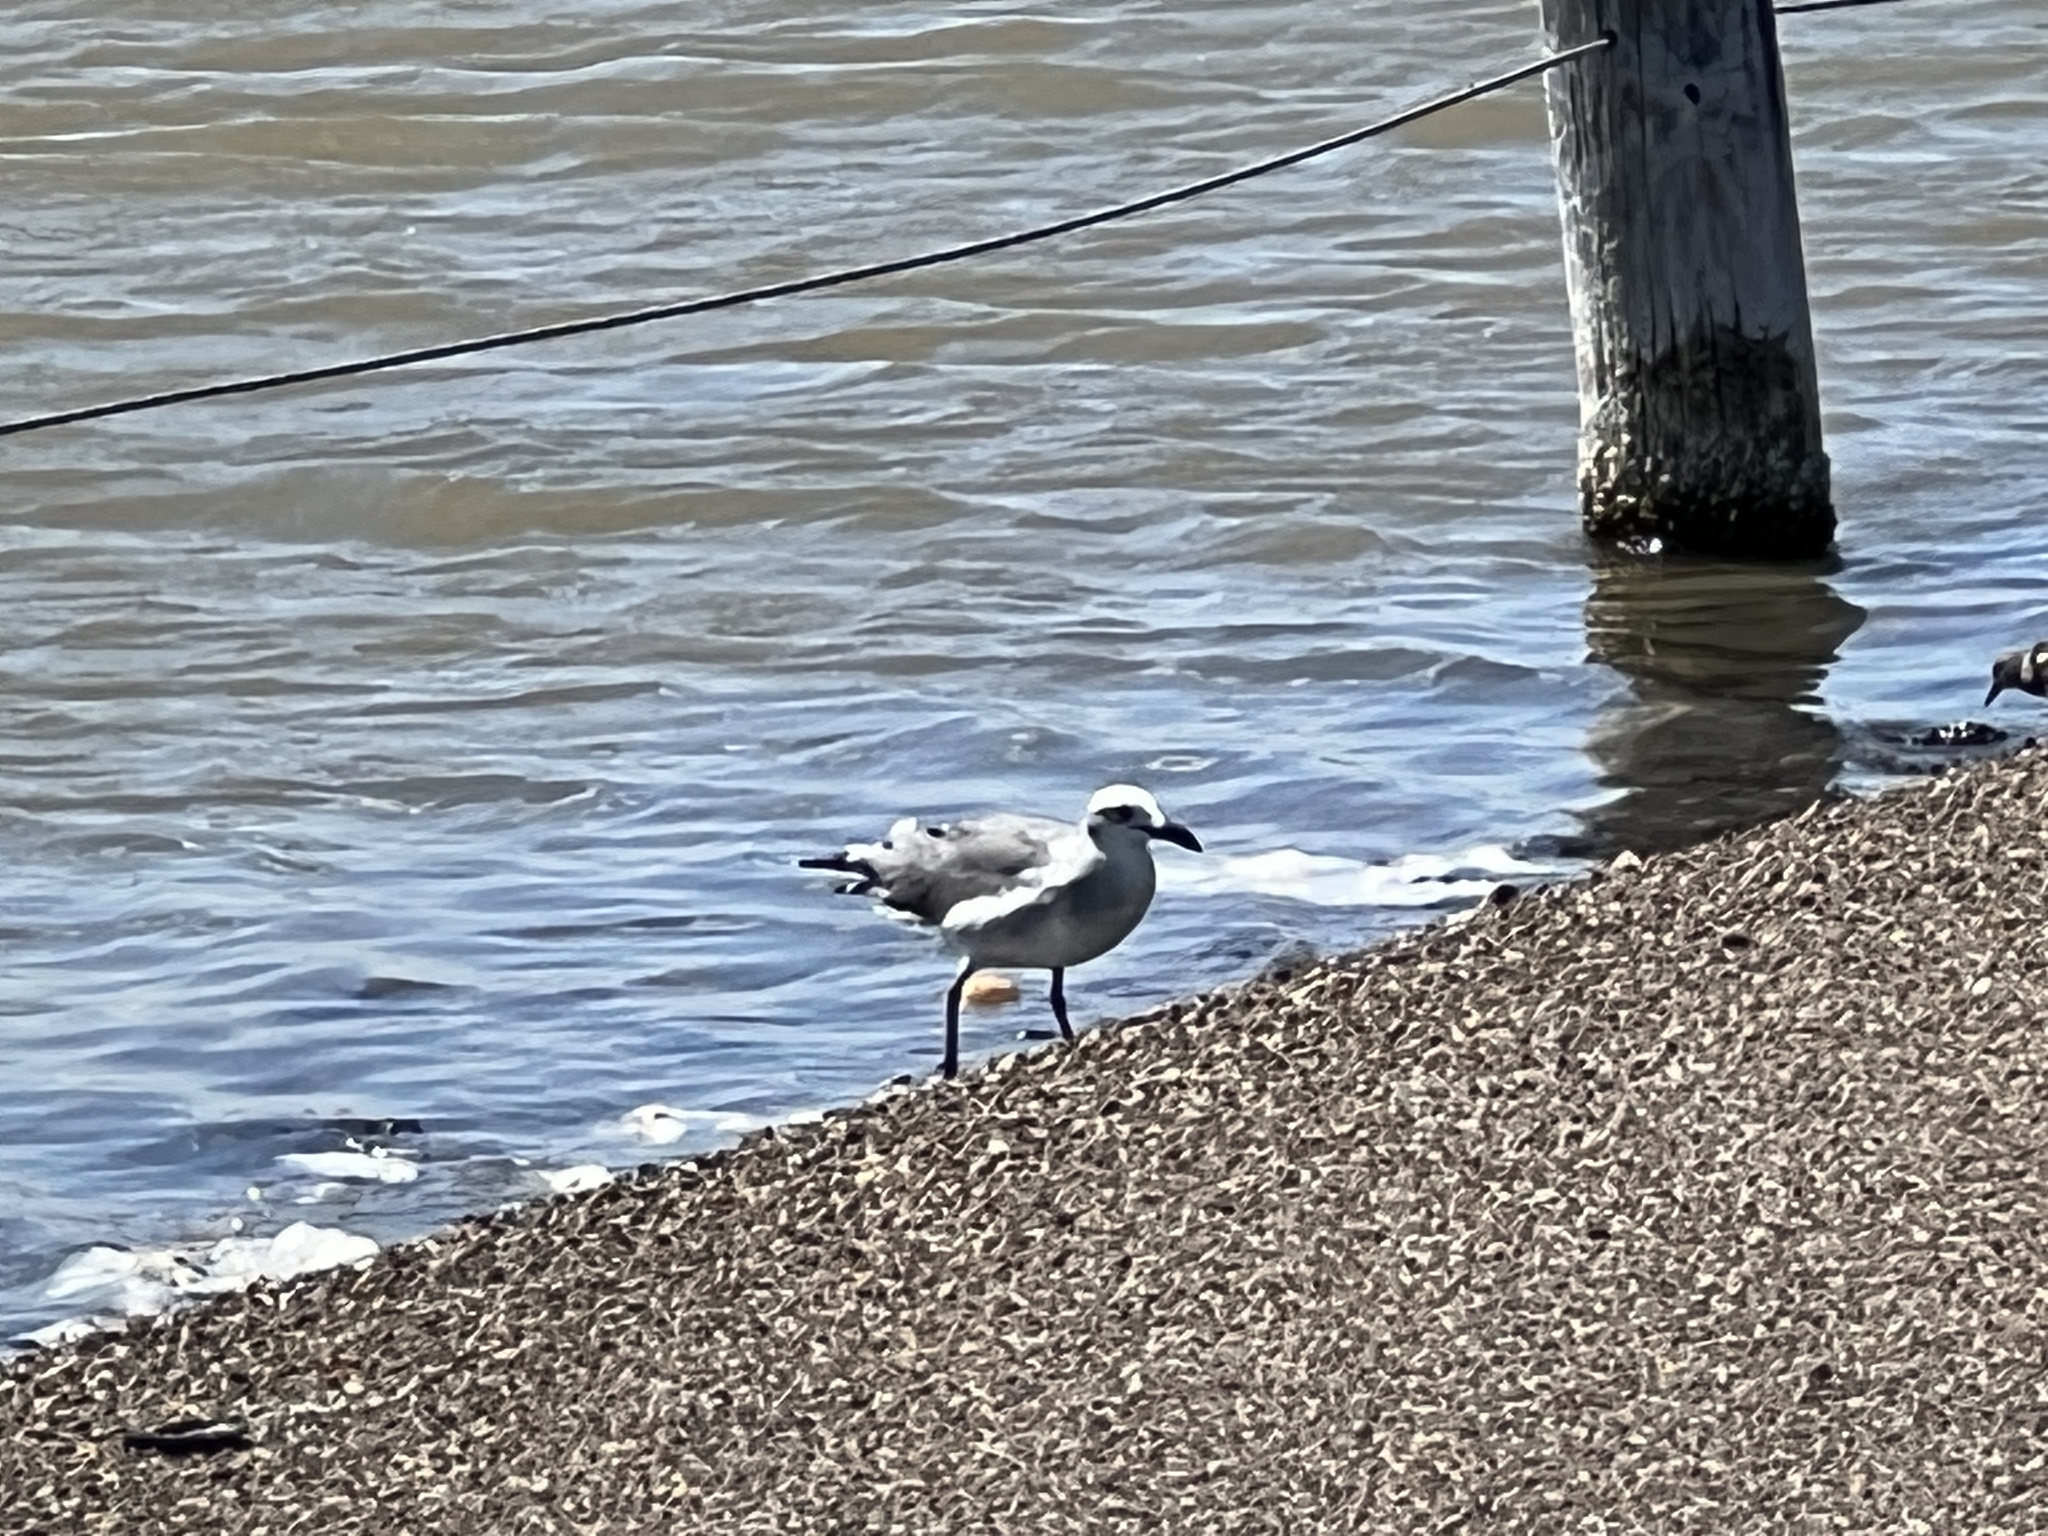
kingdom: Animalia
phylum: Chordata
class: Aves
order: Charadriiformes
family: Laridae
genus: Leucophaeus
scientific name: Leucophaeus atricilla
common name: Laughing gull
